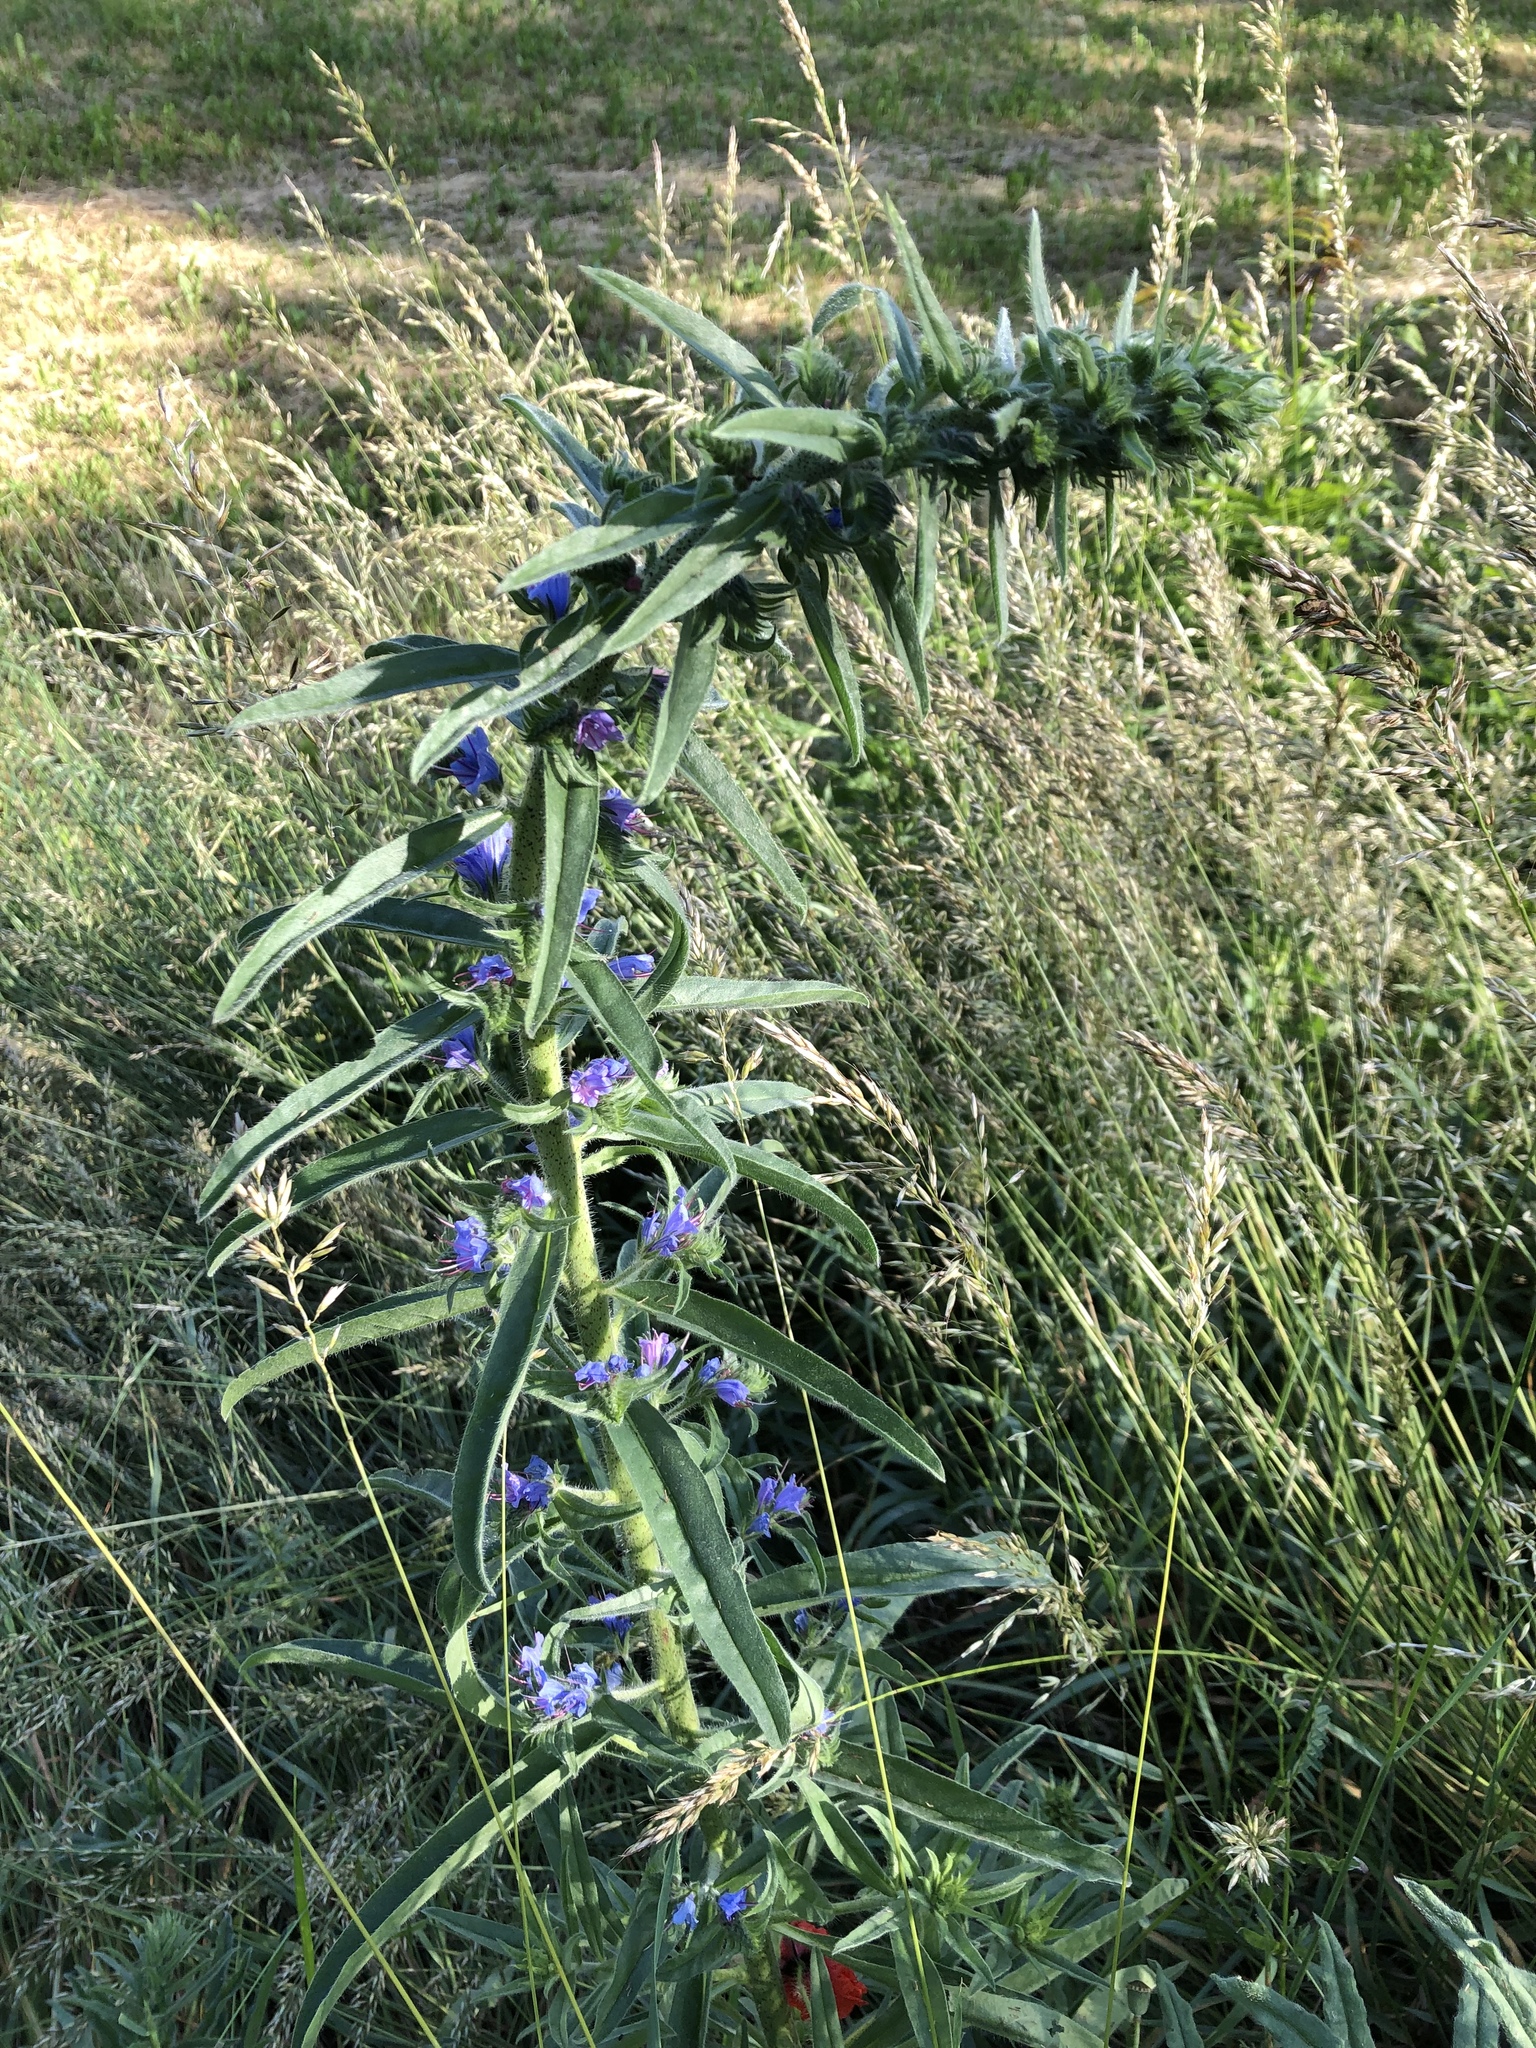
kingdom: Plantae
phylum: Tracheophyta
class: Magnoliopsida
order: Boraginales
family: Boraginaceae
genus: Echium
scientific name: Echium vulgare
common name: Common viper's bugloss
